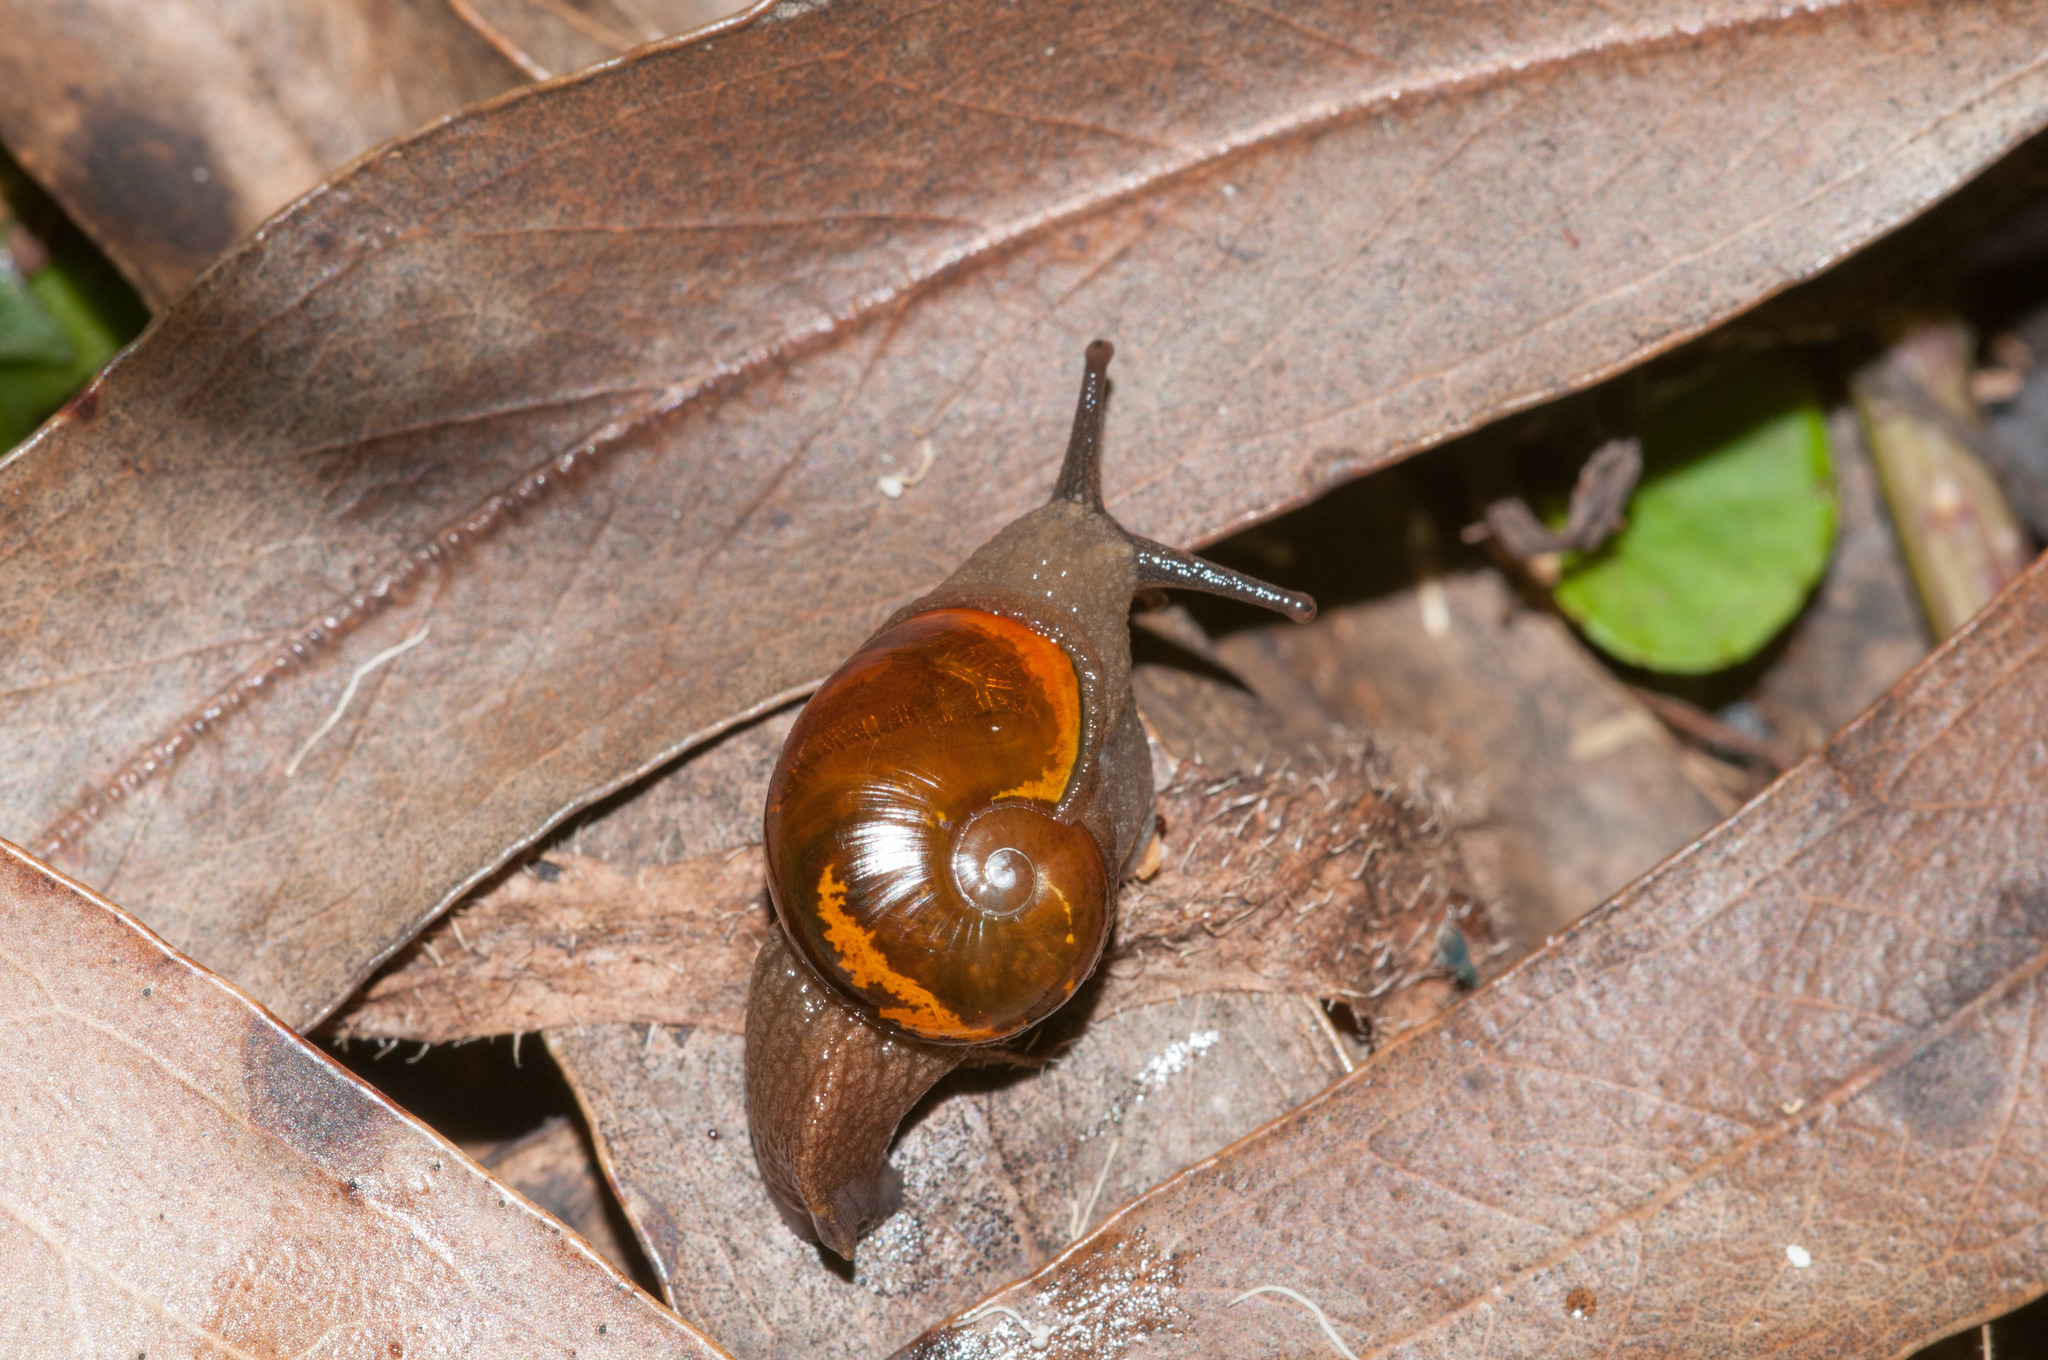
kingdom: Animalia
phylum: Mollusca
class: Gastropoda
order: Stylommatophora
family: Helicarionidae
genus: Helicarion
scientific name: Helicarion cuvieri
